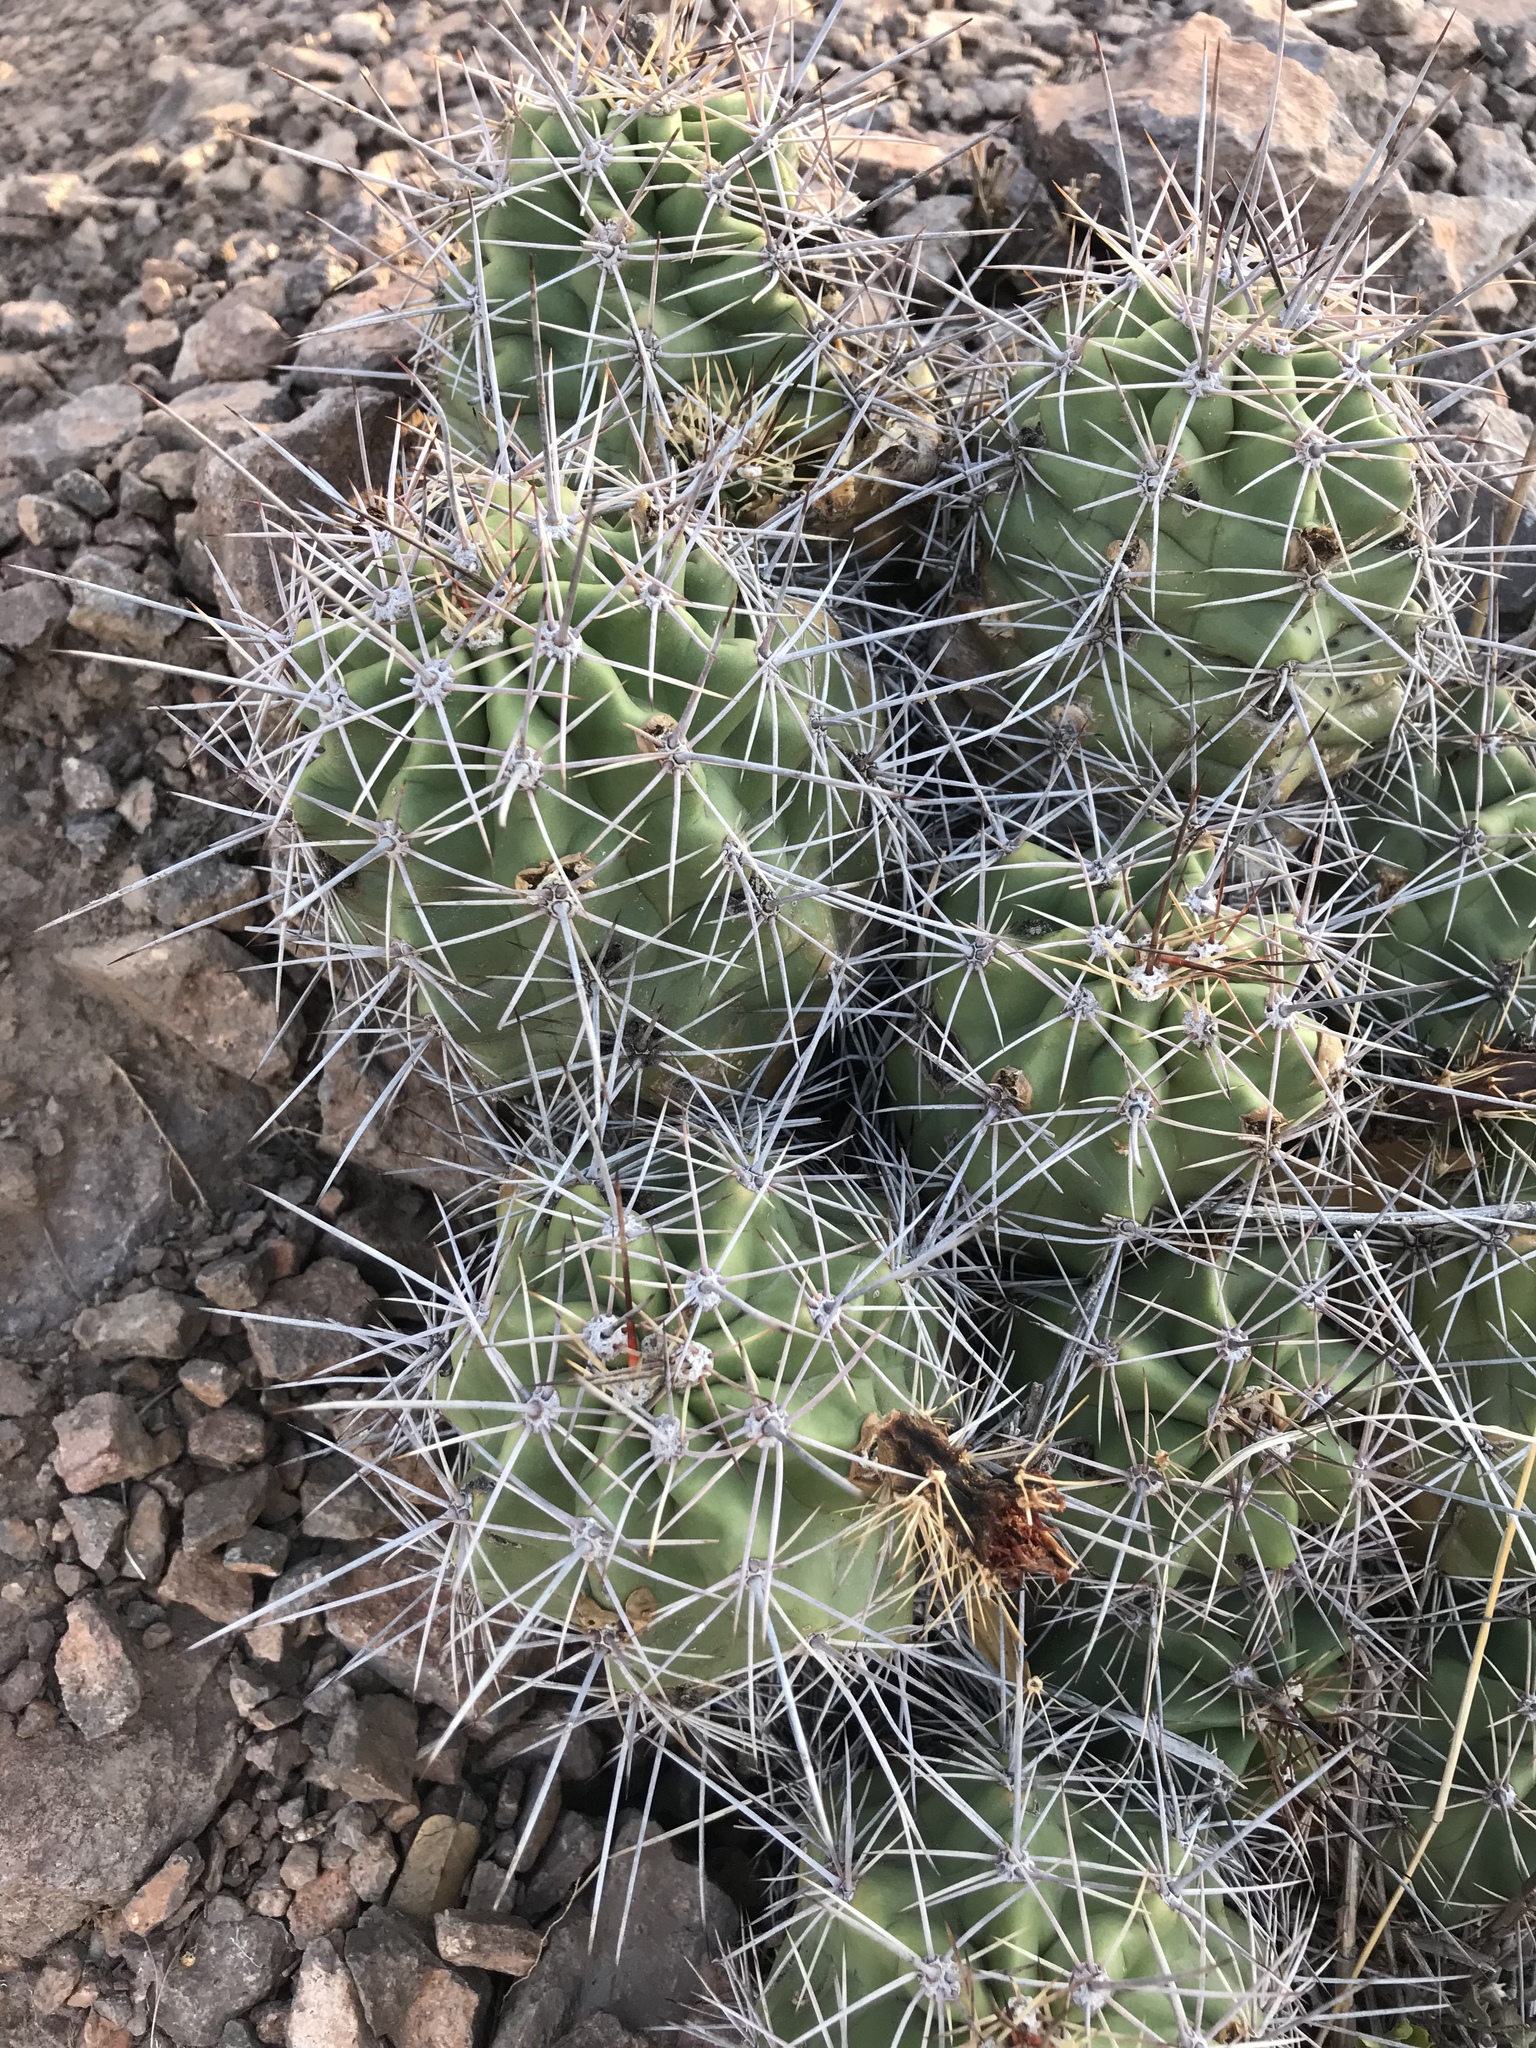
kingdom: Plantae
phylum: Tracheophyta
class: Magnoliopsida
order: Caryophyllales
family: Cactaceae
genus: Echinocereus
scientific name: Echinocereus coccineus
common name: Scarlet hedgehog cactus
